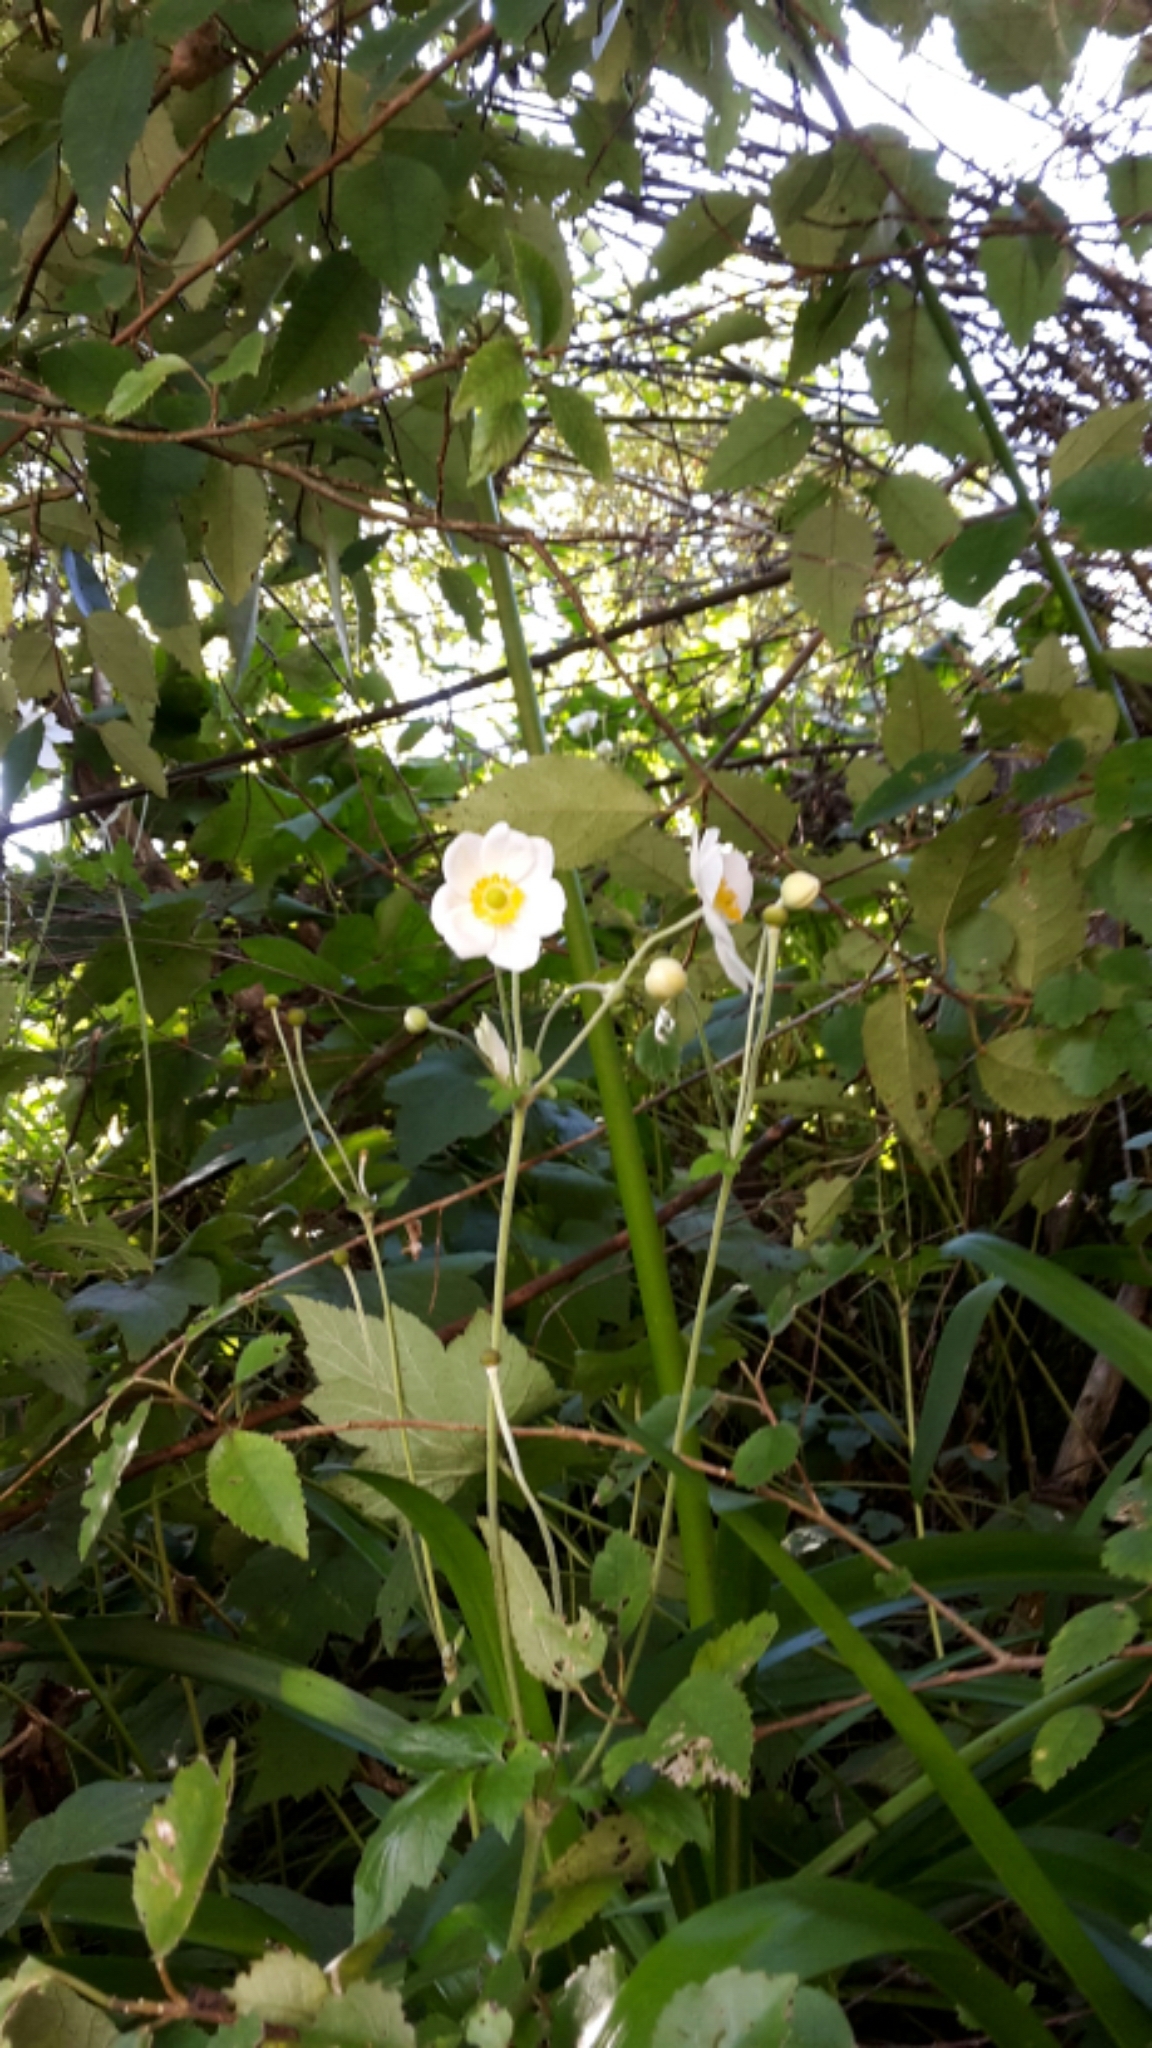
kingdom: Plantae
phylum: Tracheophyta
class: Magnoliopsida
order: Ranunculales
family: Ranunculaceae
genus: Eriocapitella
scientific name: Eriocapitella hupehensis
